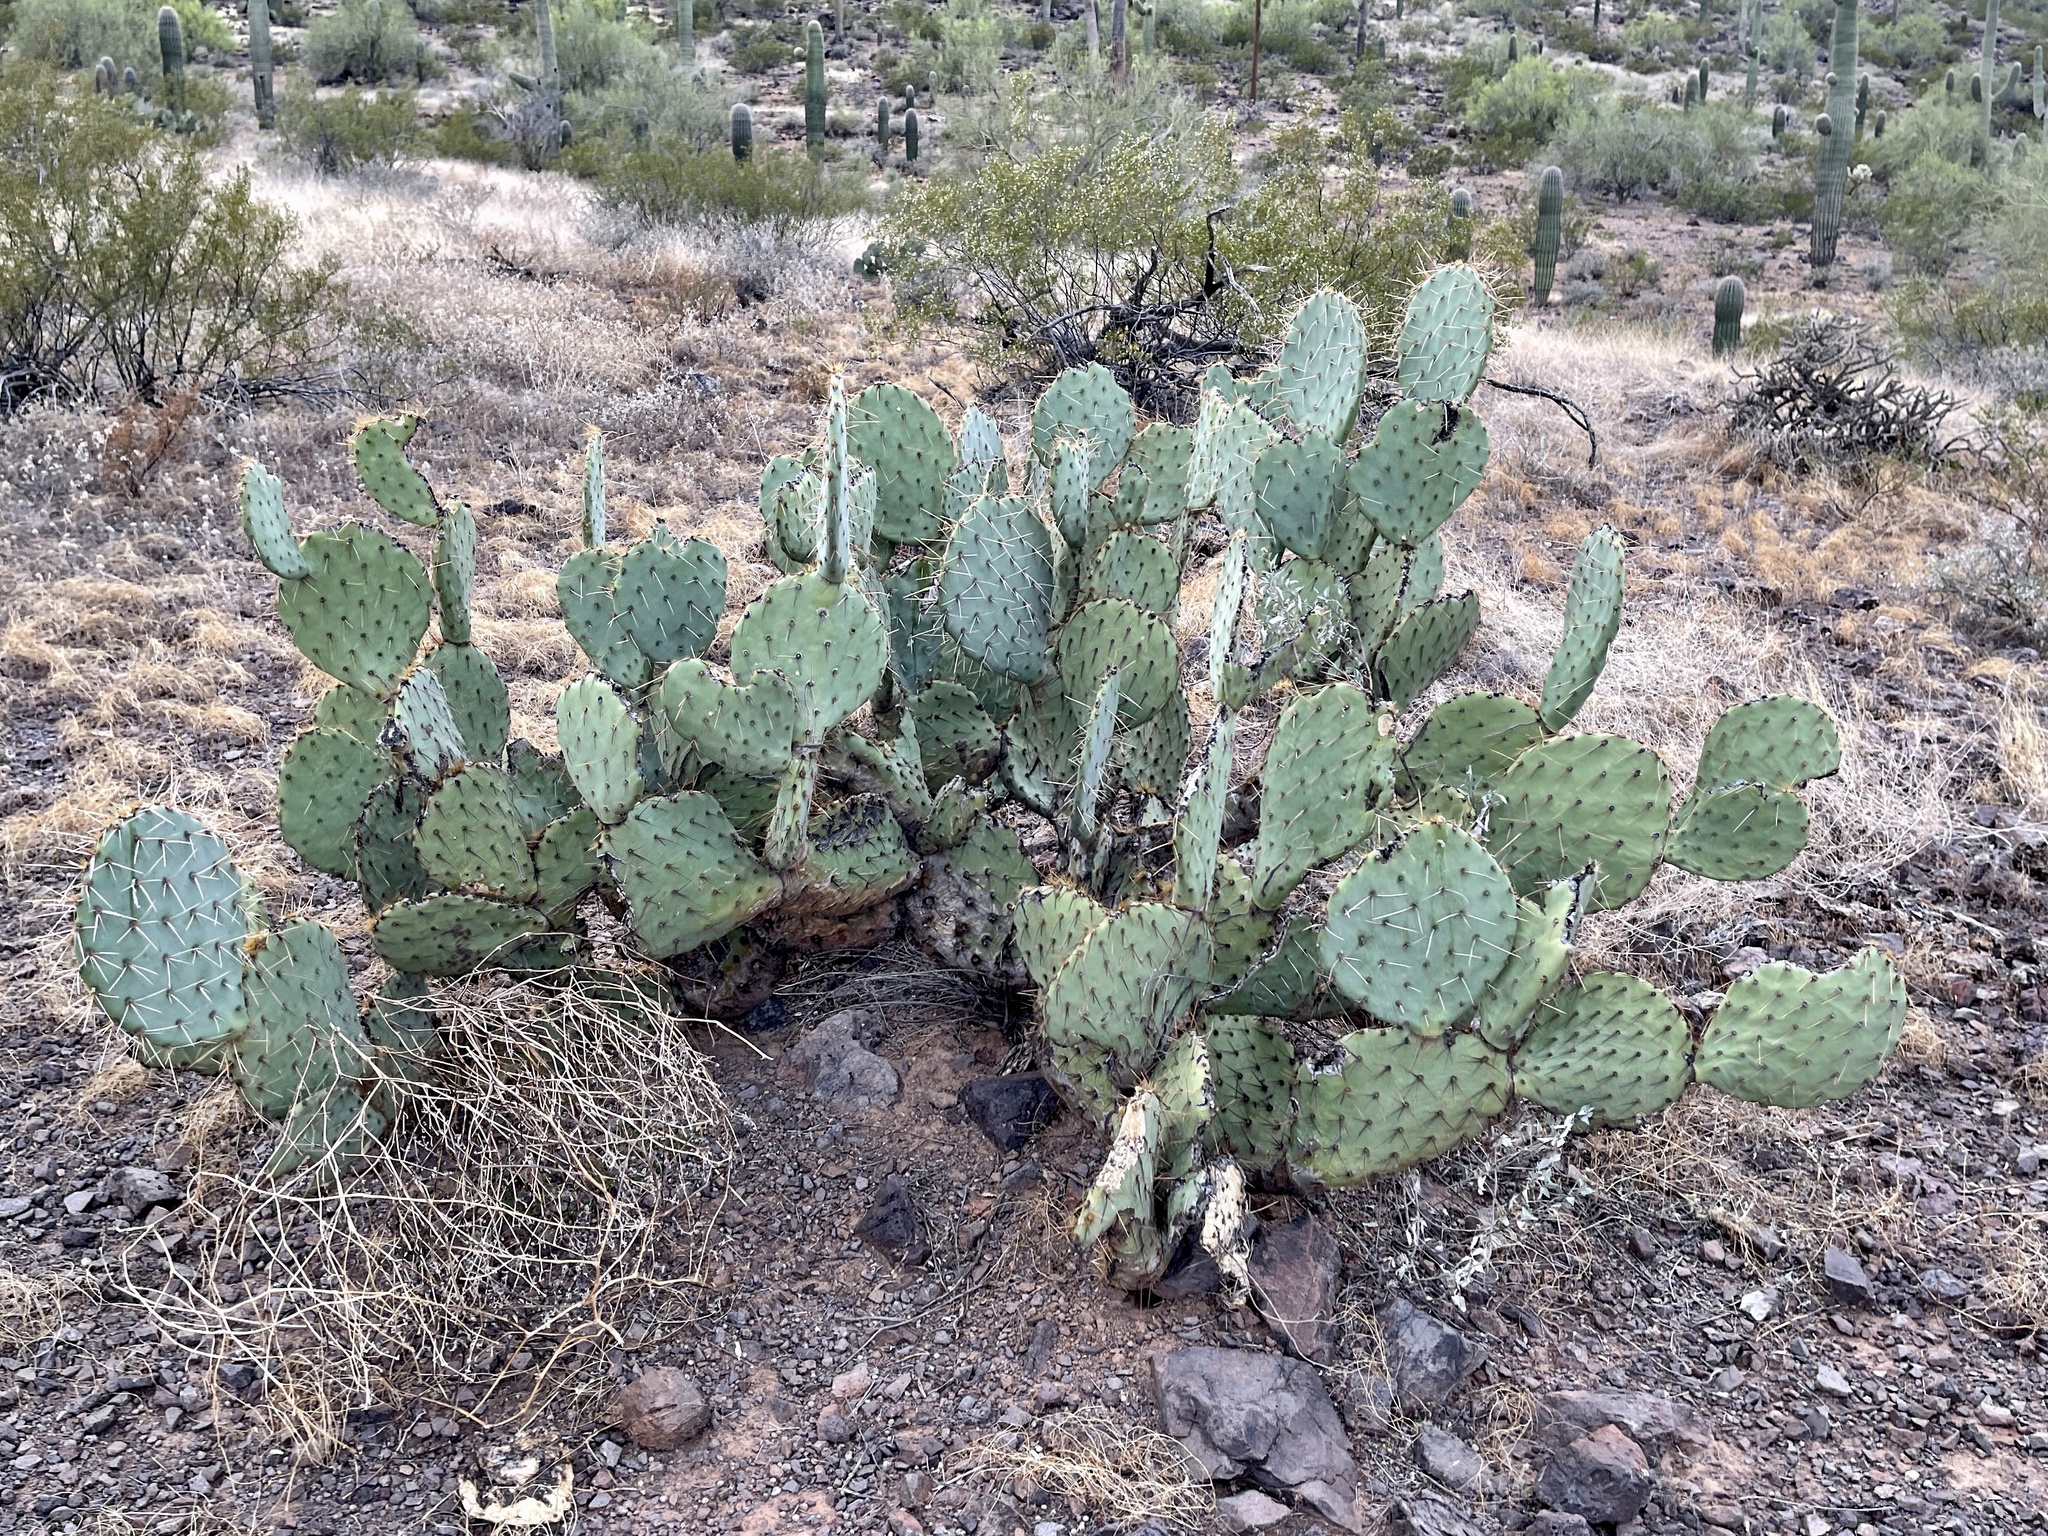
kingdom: Plantae
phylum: Tracheophyta
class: Magnoliopsida
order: Caryophyllales
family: Cactaceae
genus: Opuntia
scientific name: Opuntia engelmannii
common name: Cactus-apple
